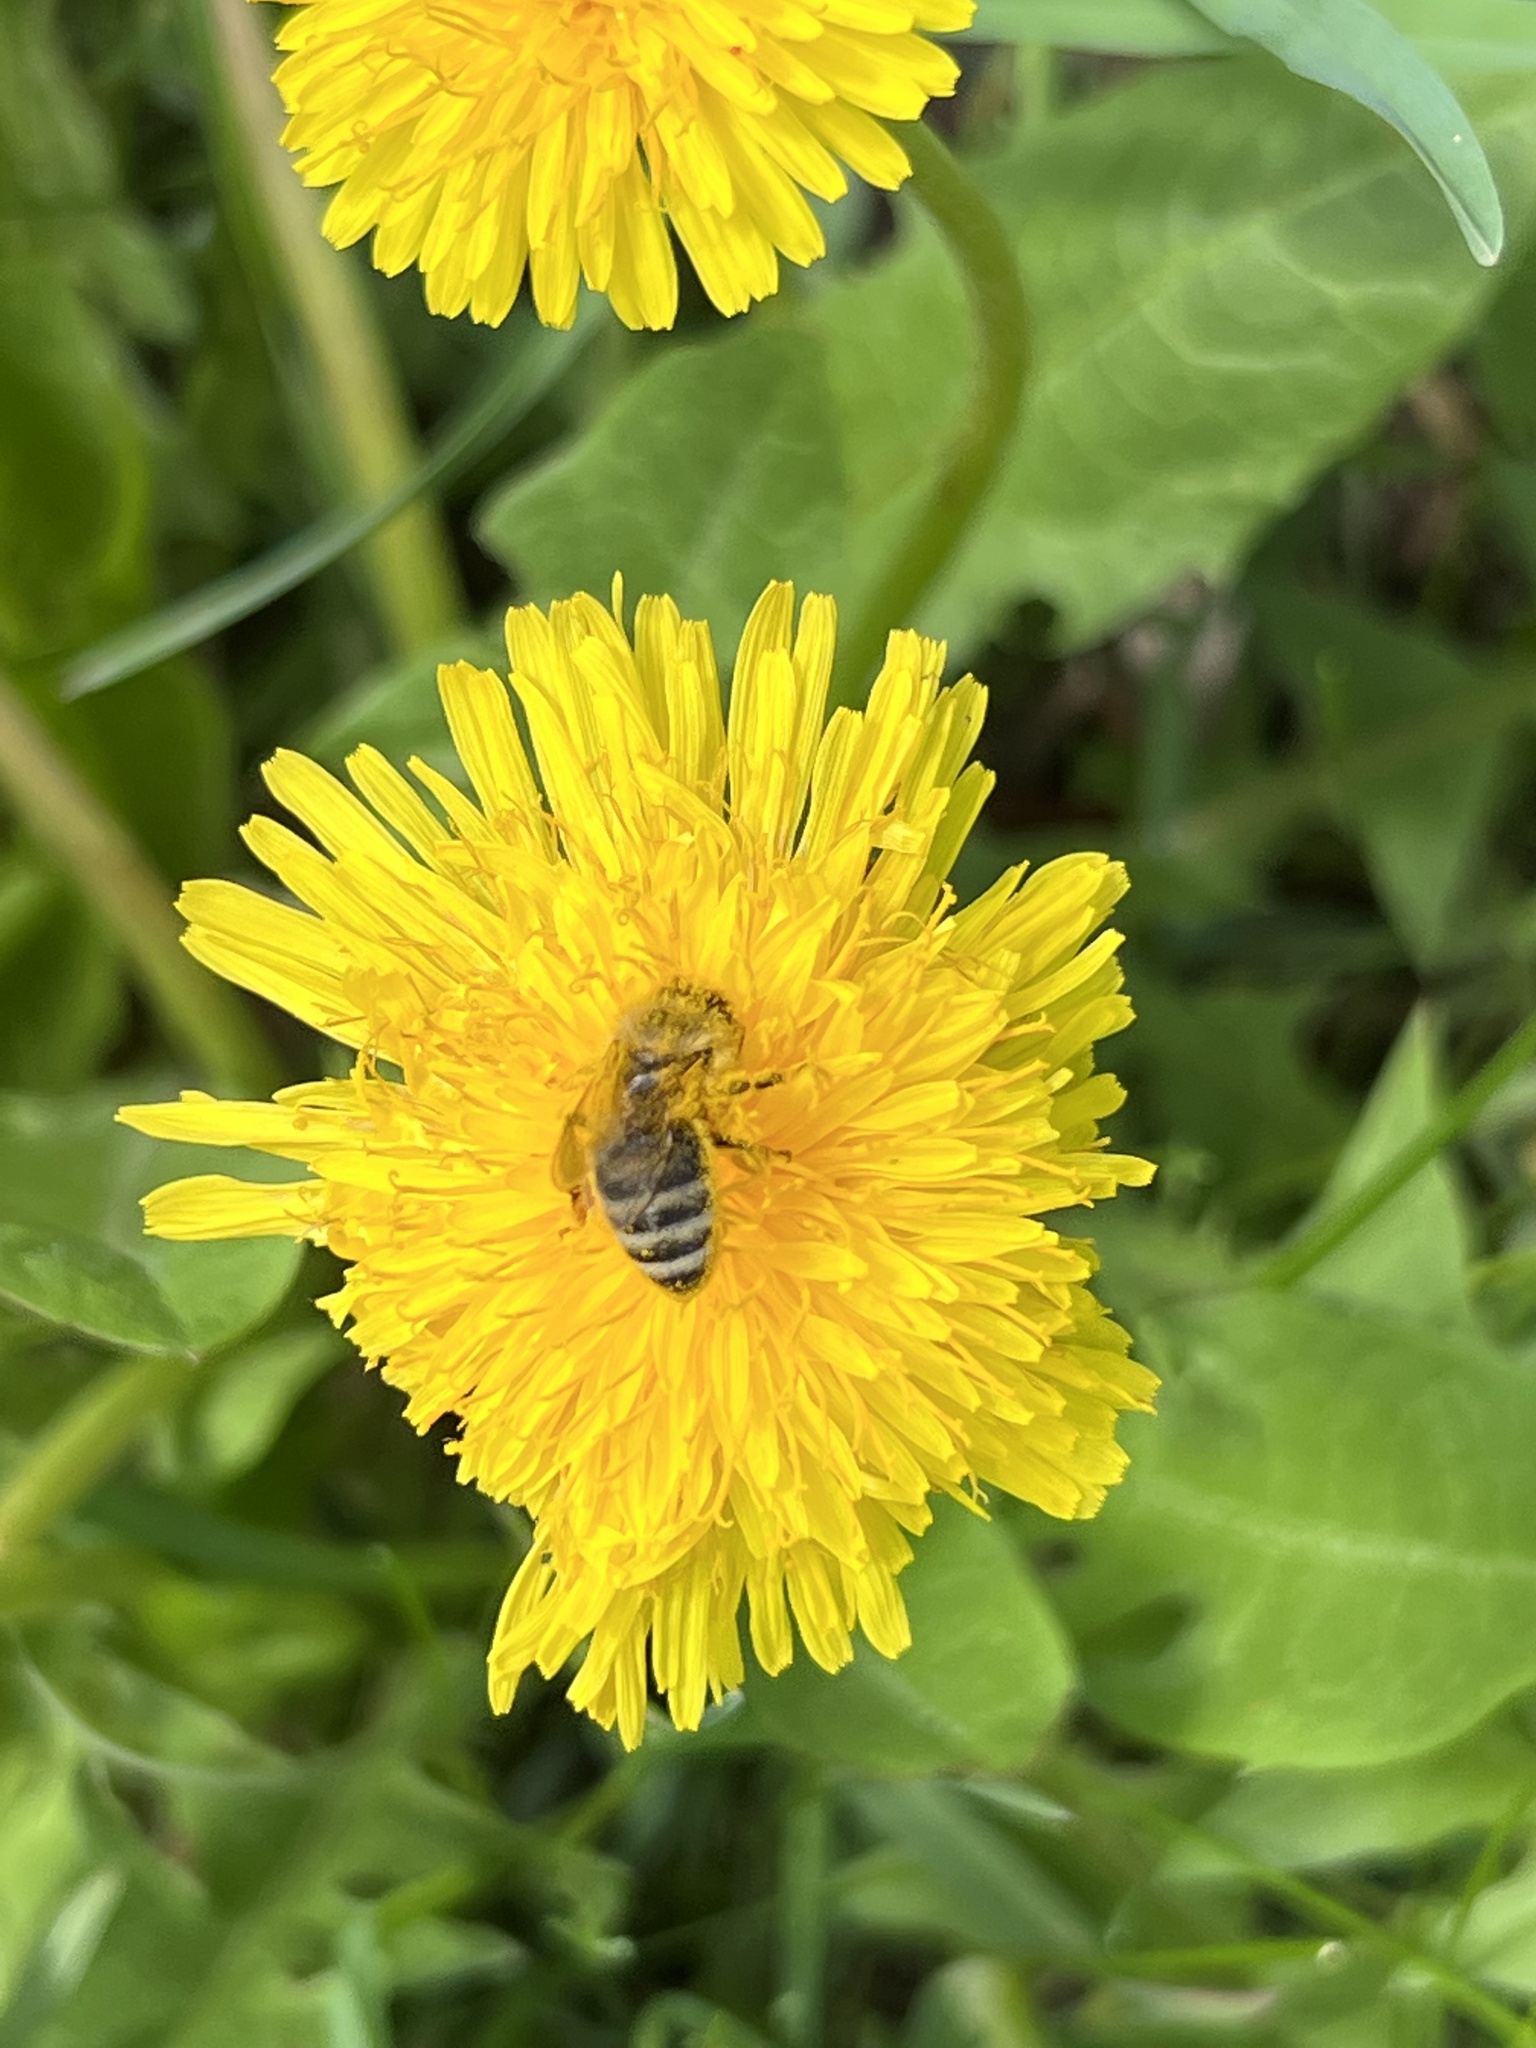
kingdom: Animalia
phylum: Arthropoda
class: Insecta
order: Hymenoptera
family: Apidae
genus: Apis
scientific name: Apis mellifera
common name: Honey bee
